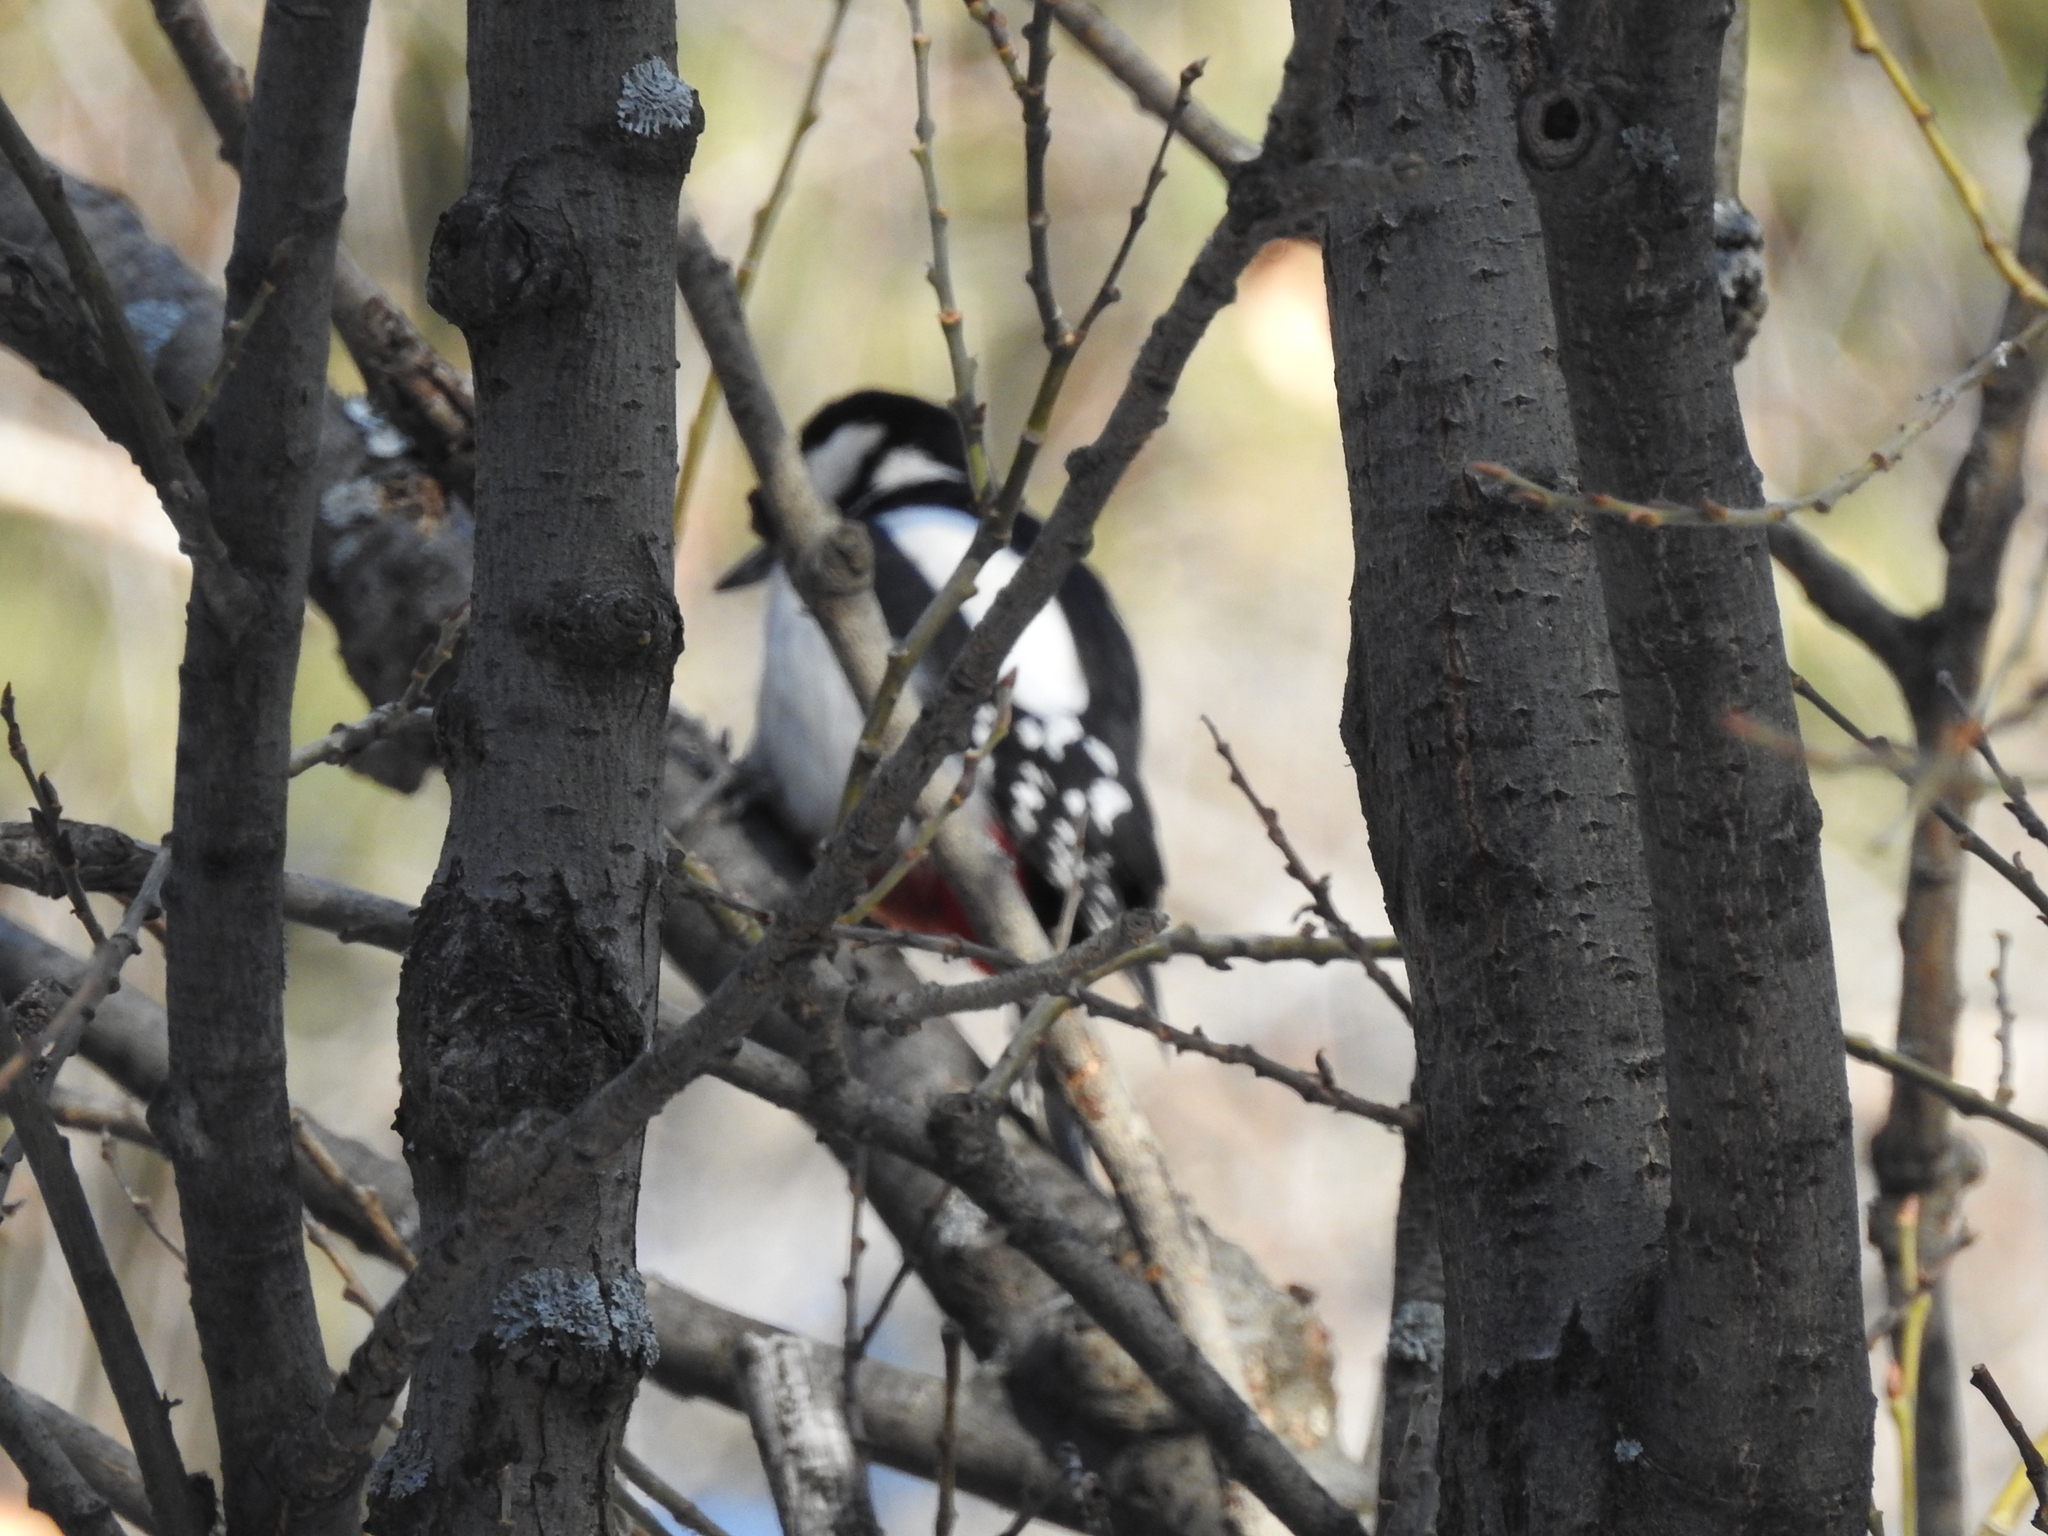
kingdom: Animalia
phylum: Chordata
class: Aves
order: Piciformes
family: Picidae
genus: Dendrocopos
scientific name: Dendrocopos major
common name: Great spotted woodpecker
